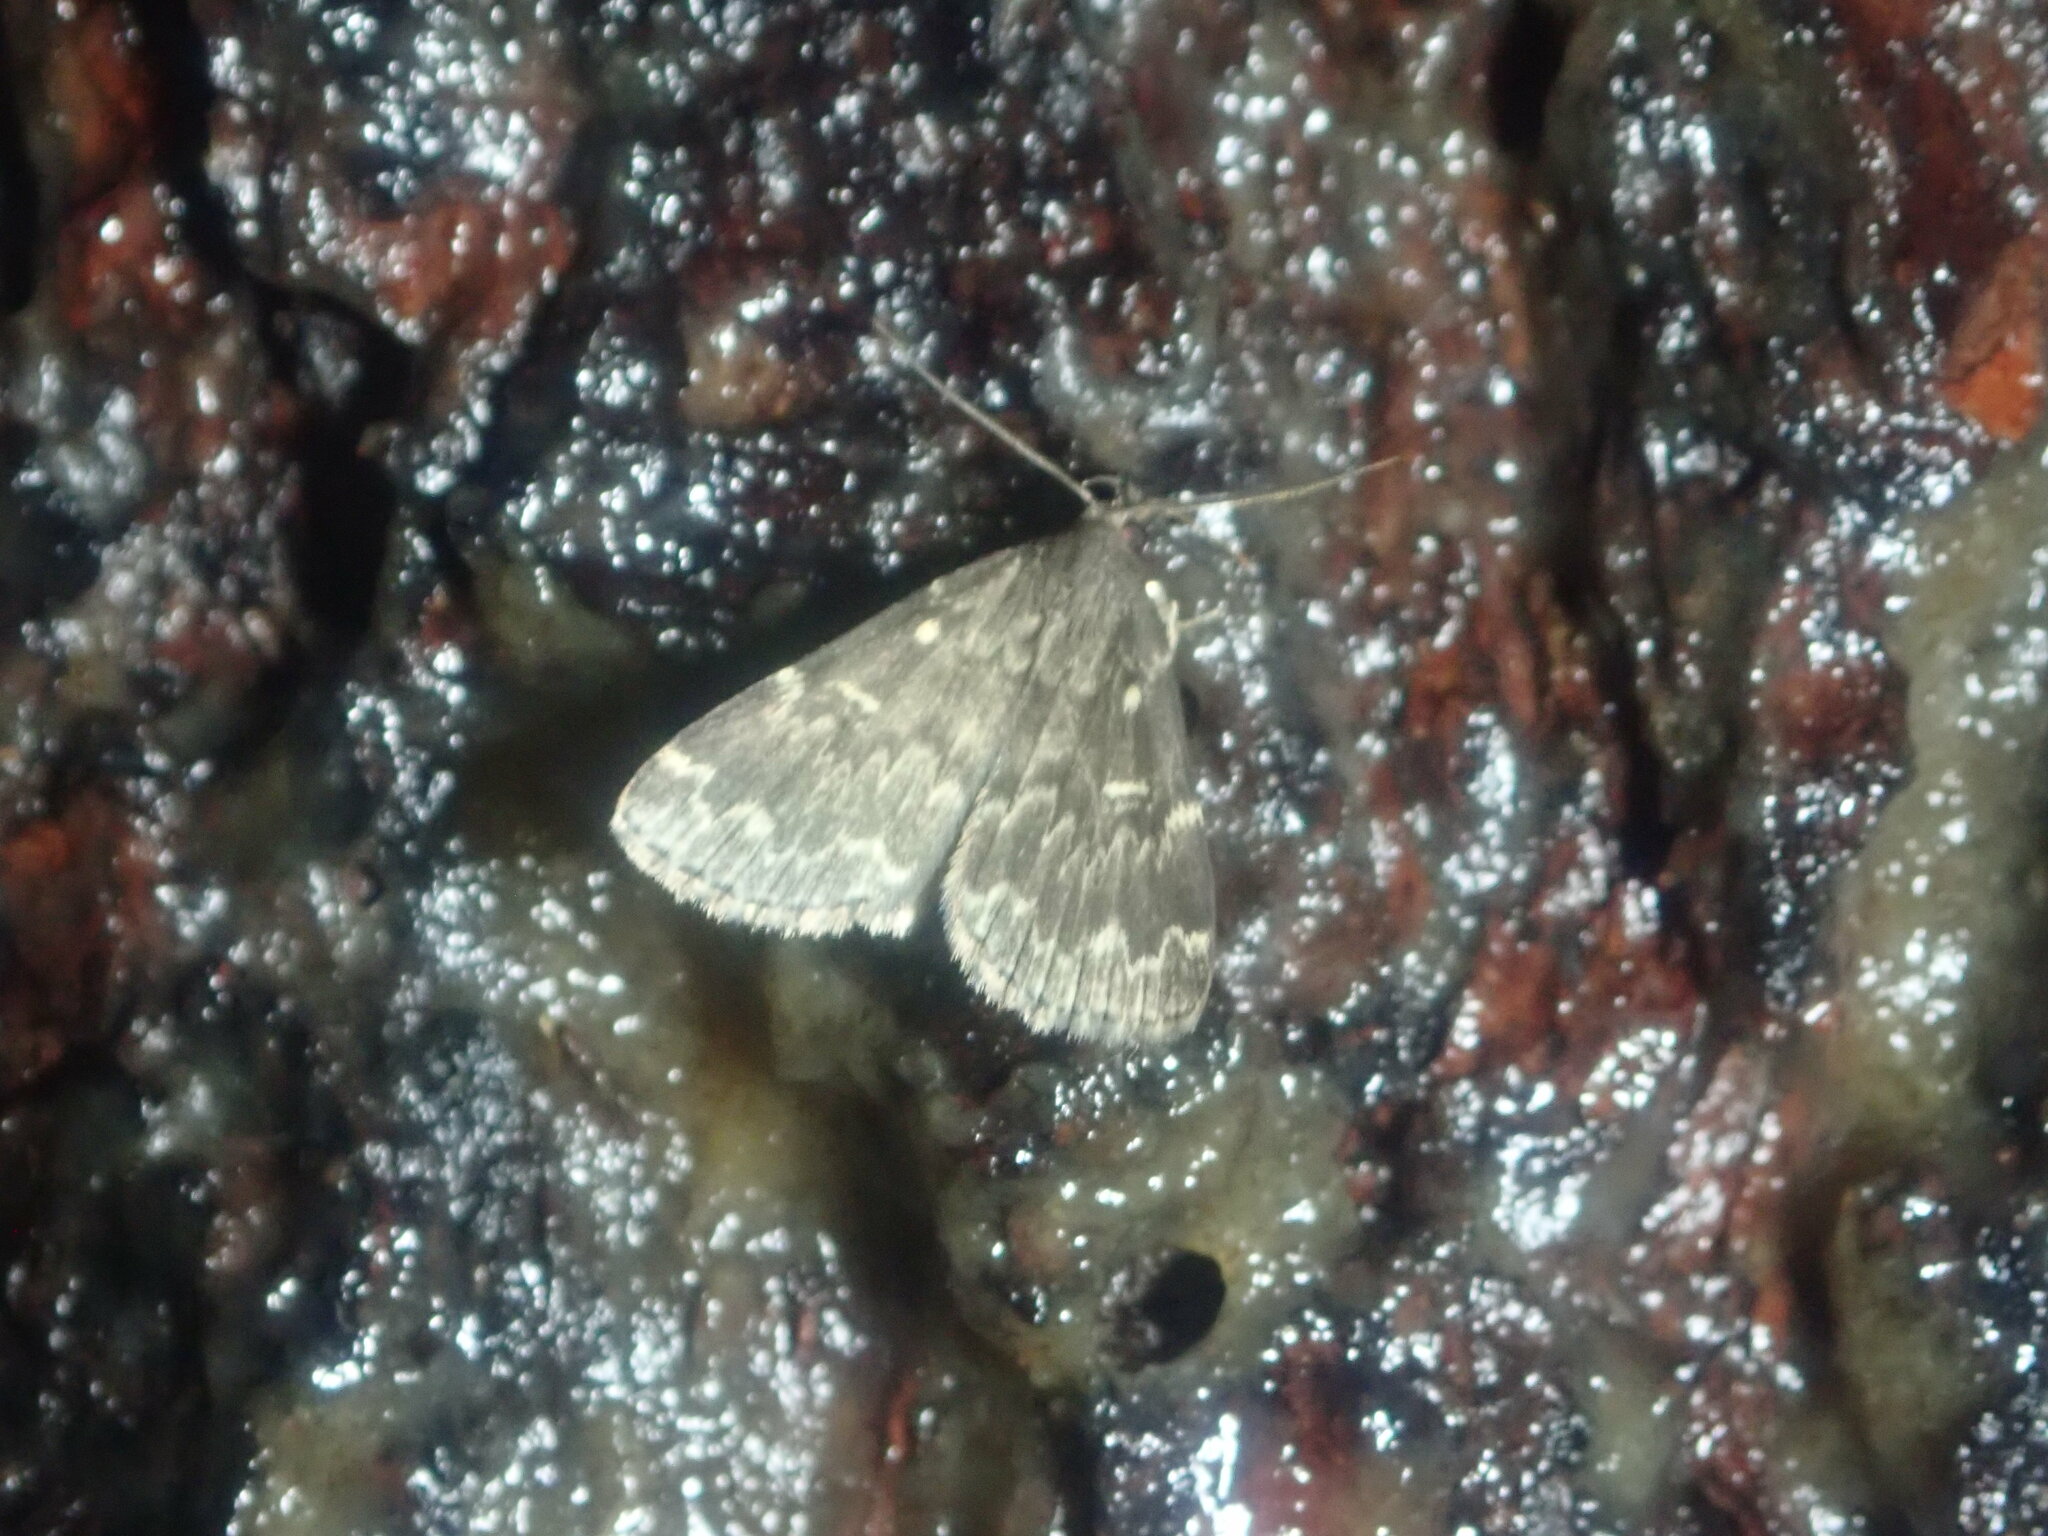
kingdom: Animalia
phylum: Arthropoda
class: Insecta
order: Lepidoptera
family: Erebidae
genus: Idia
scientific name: Idia lubricalis
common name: Twin-striped tabby
